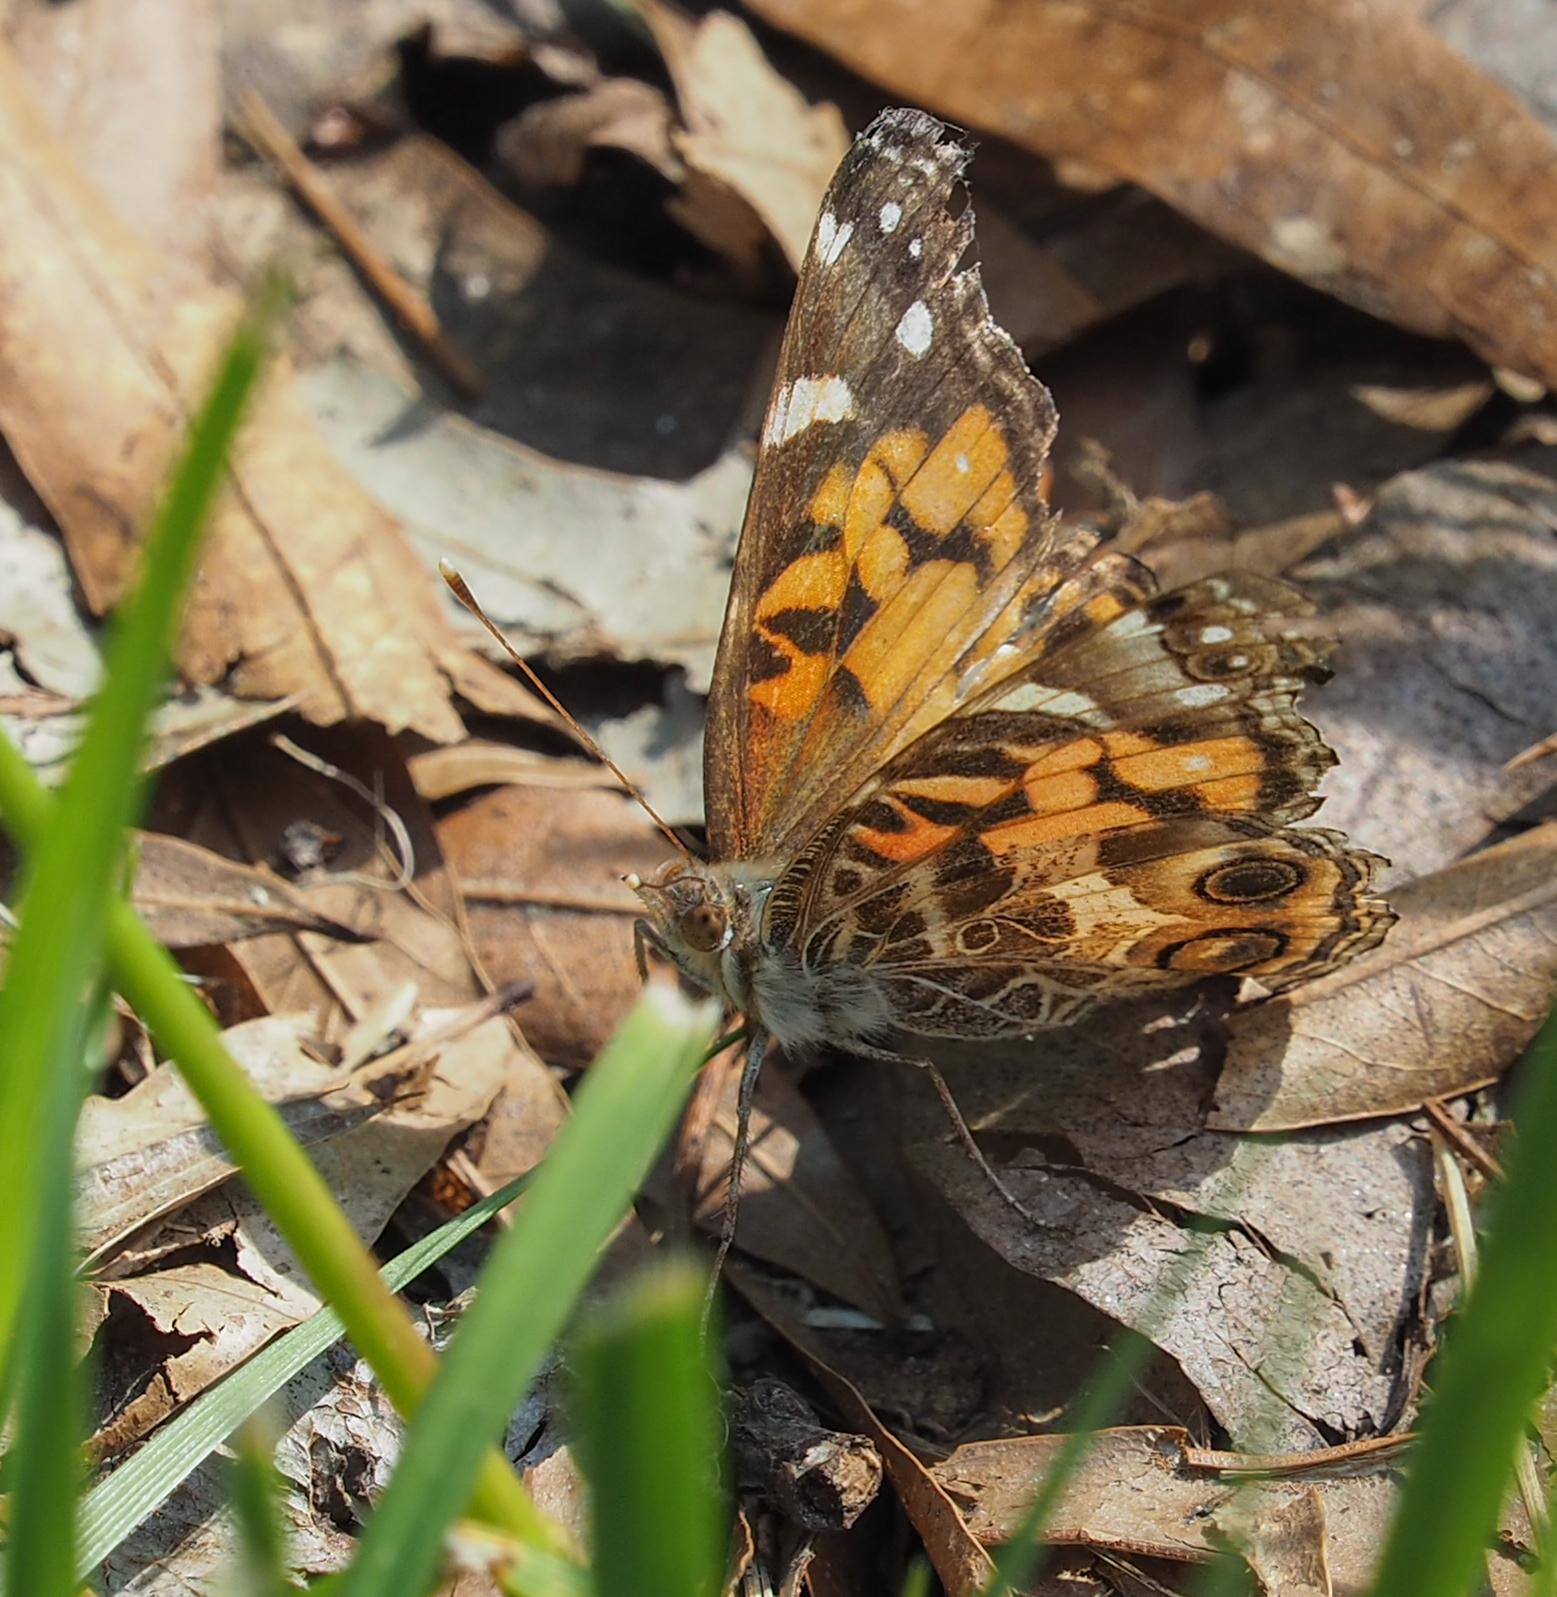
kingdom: Animalia
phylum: Arthropoda
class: Insecta
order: Lepidoptera
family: Nymphalidae
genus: Vanessa
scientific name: Vanessa virginiensis
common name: American lady
